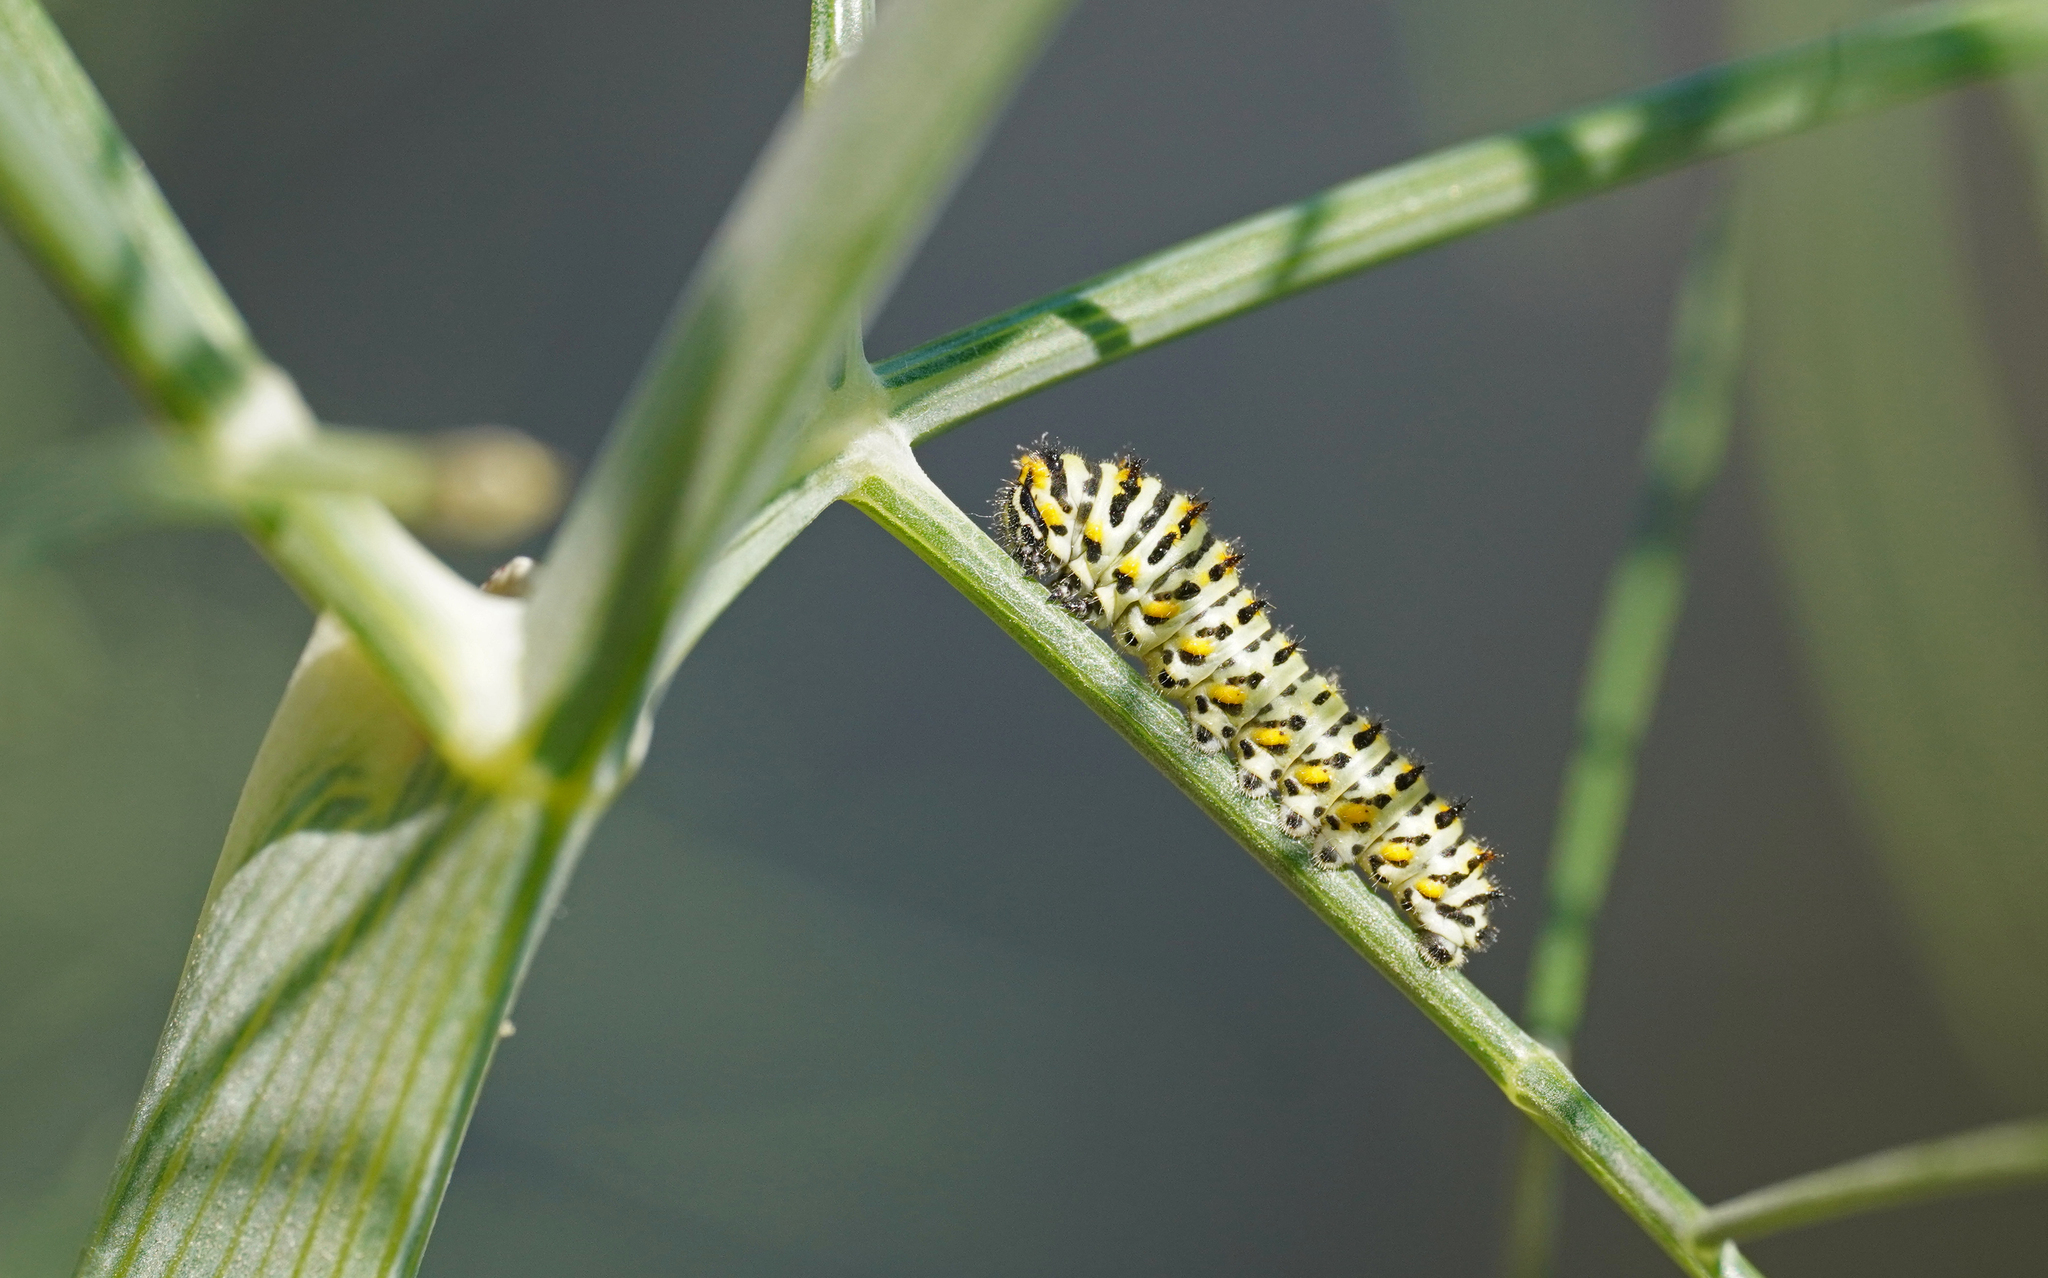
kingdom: Animalia
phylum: Arthropoda
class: Insecta
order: Lepidoptera
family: Papilionidae
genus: Papilio
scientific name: Papilio machaon
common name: Swallowtail
